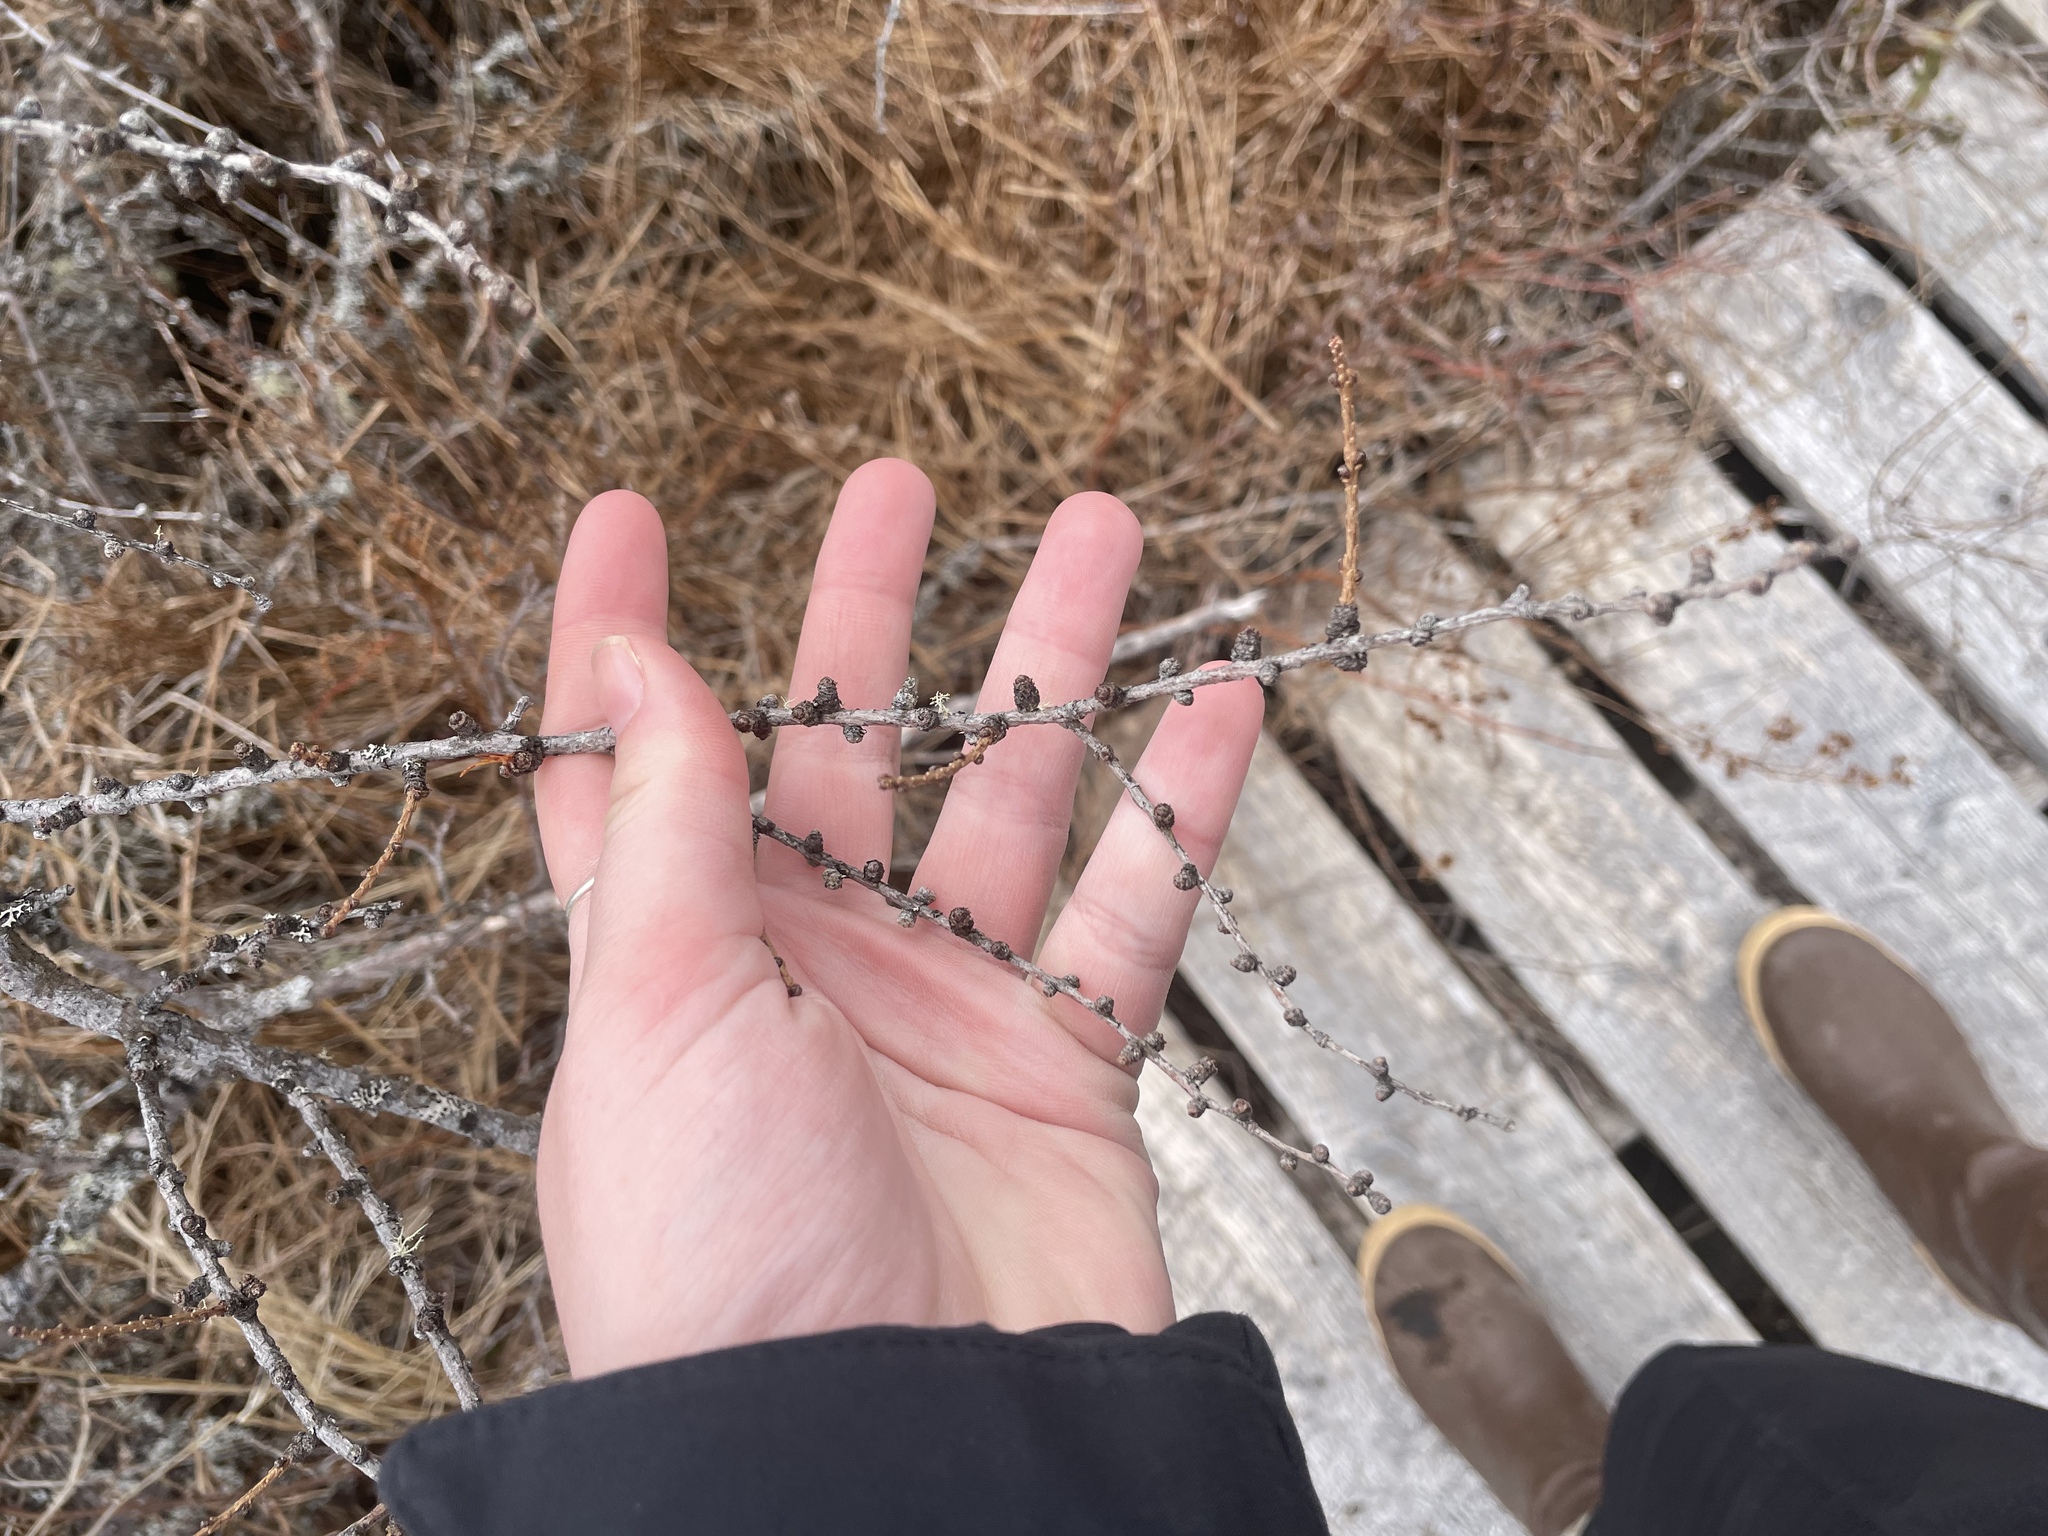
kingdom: Plantae
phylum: Tracheophyta
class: Pinopsida
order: Pinales
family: Pinaceae
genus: Larix
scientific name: Larix laricina
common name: American larch
